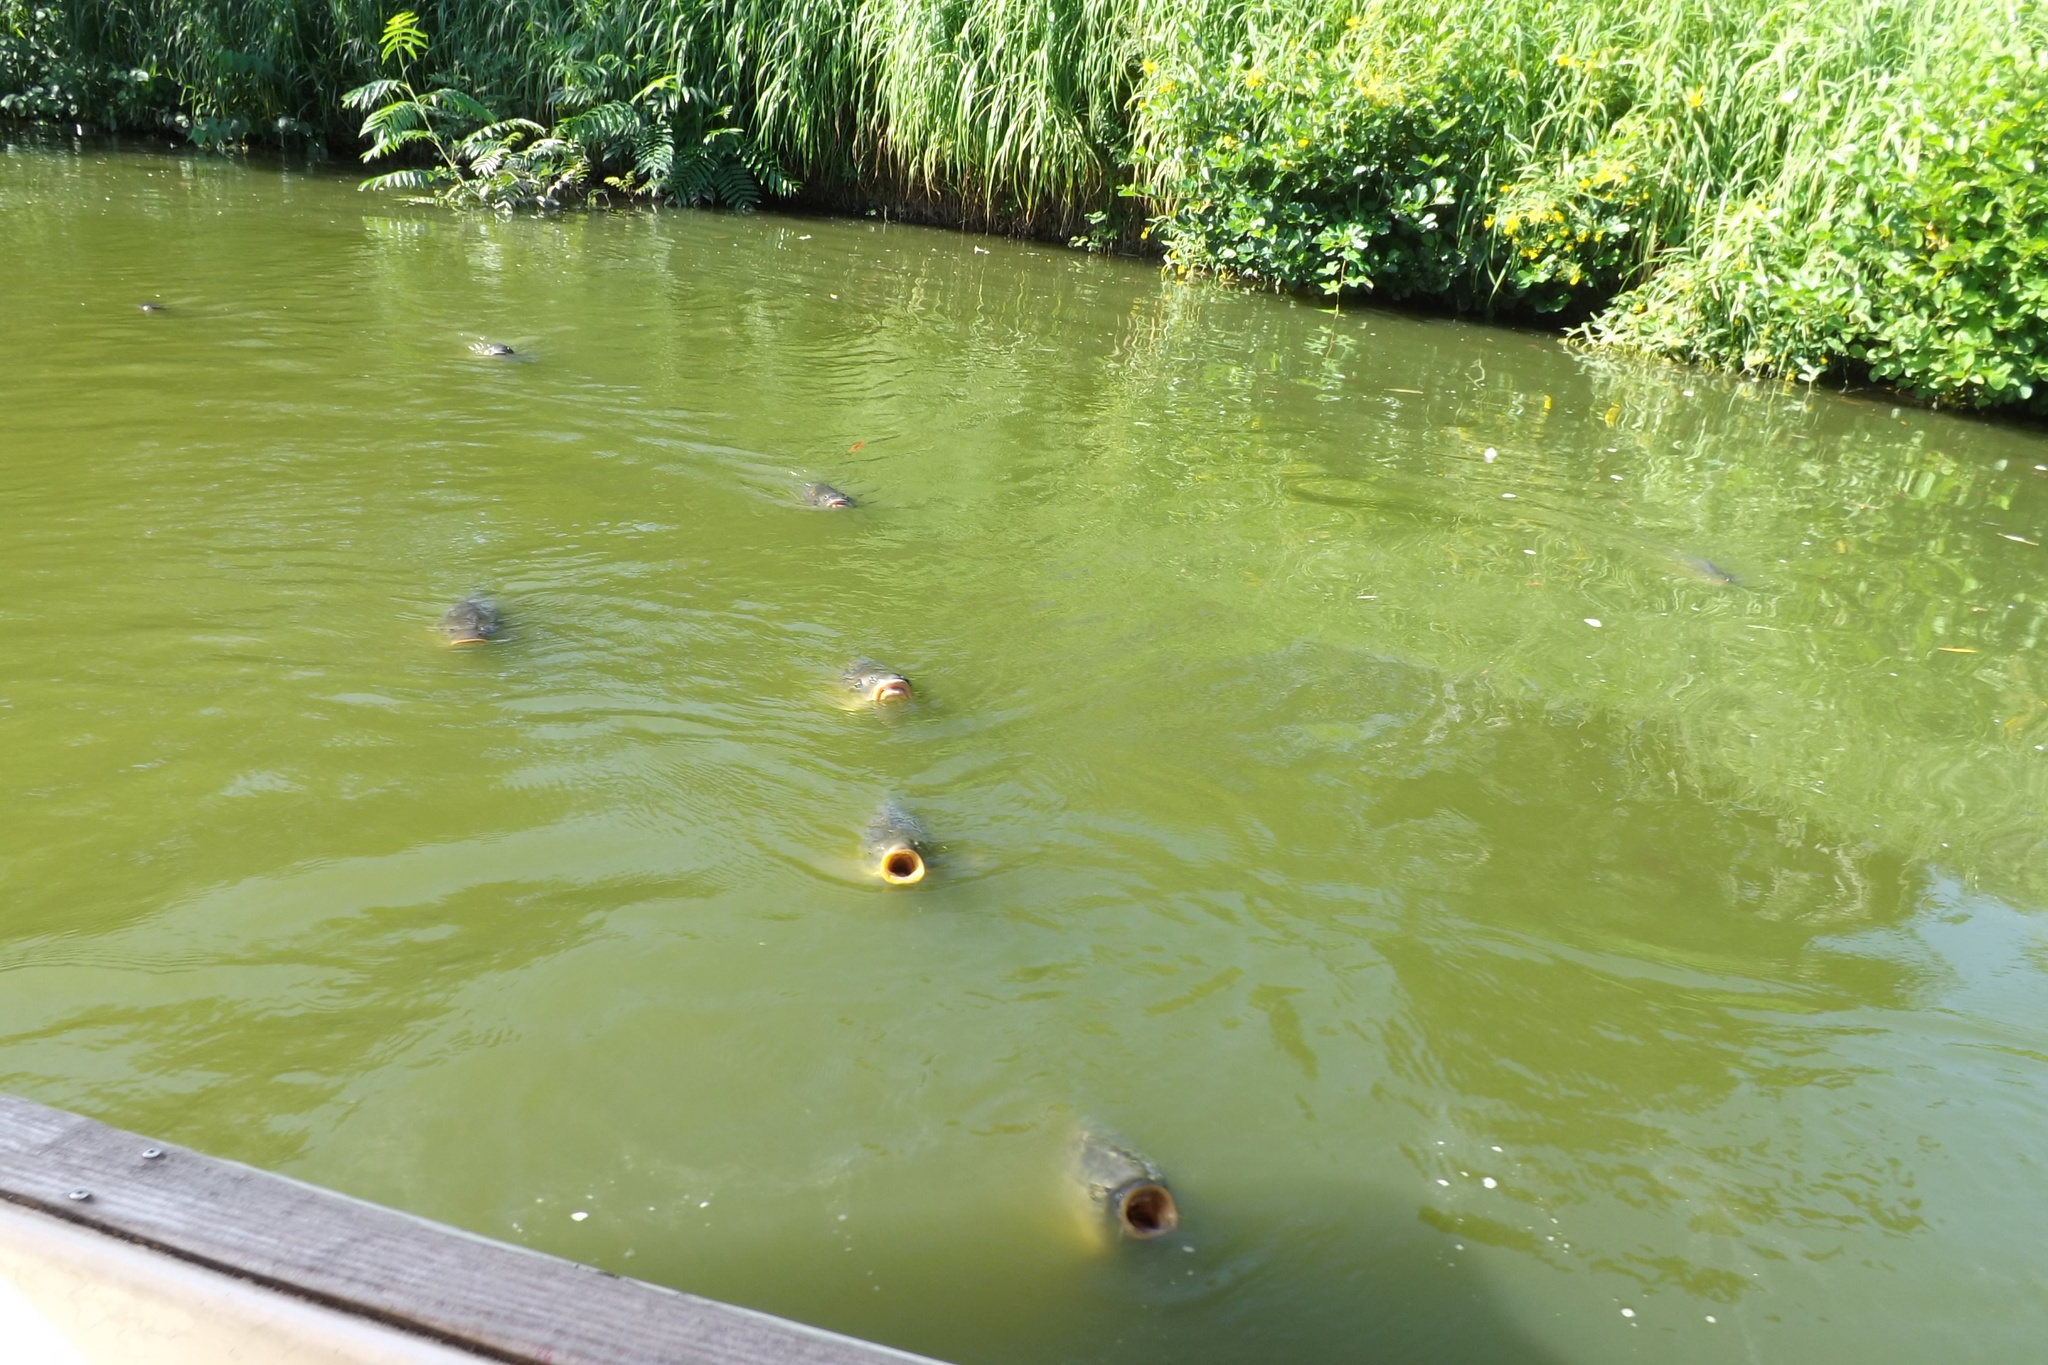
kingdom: Animalia
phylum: Chordata
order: Cypriniformes
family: Cyprinidae
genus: Cyprinus
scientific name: Cyprinus carpio
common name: Common carp
